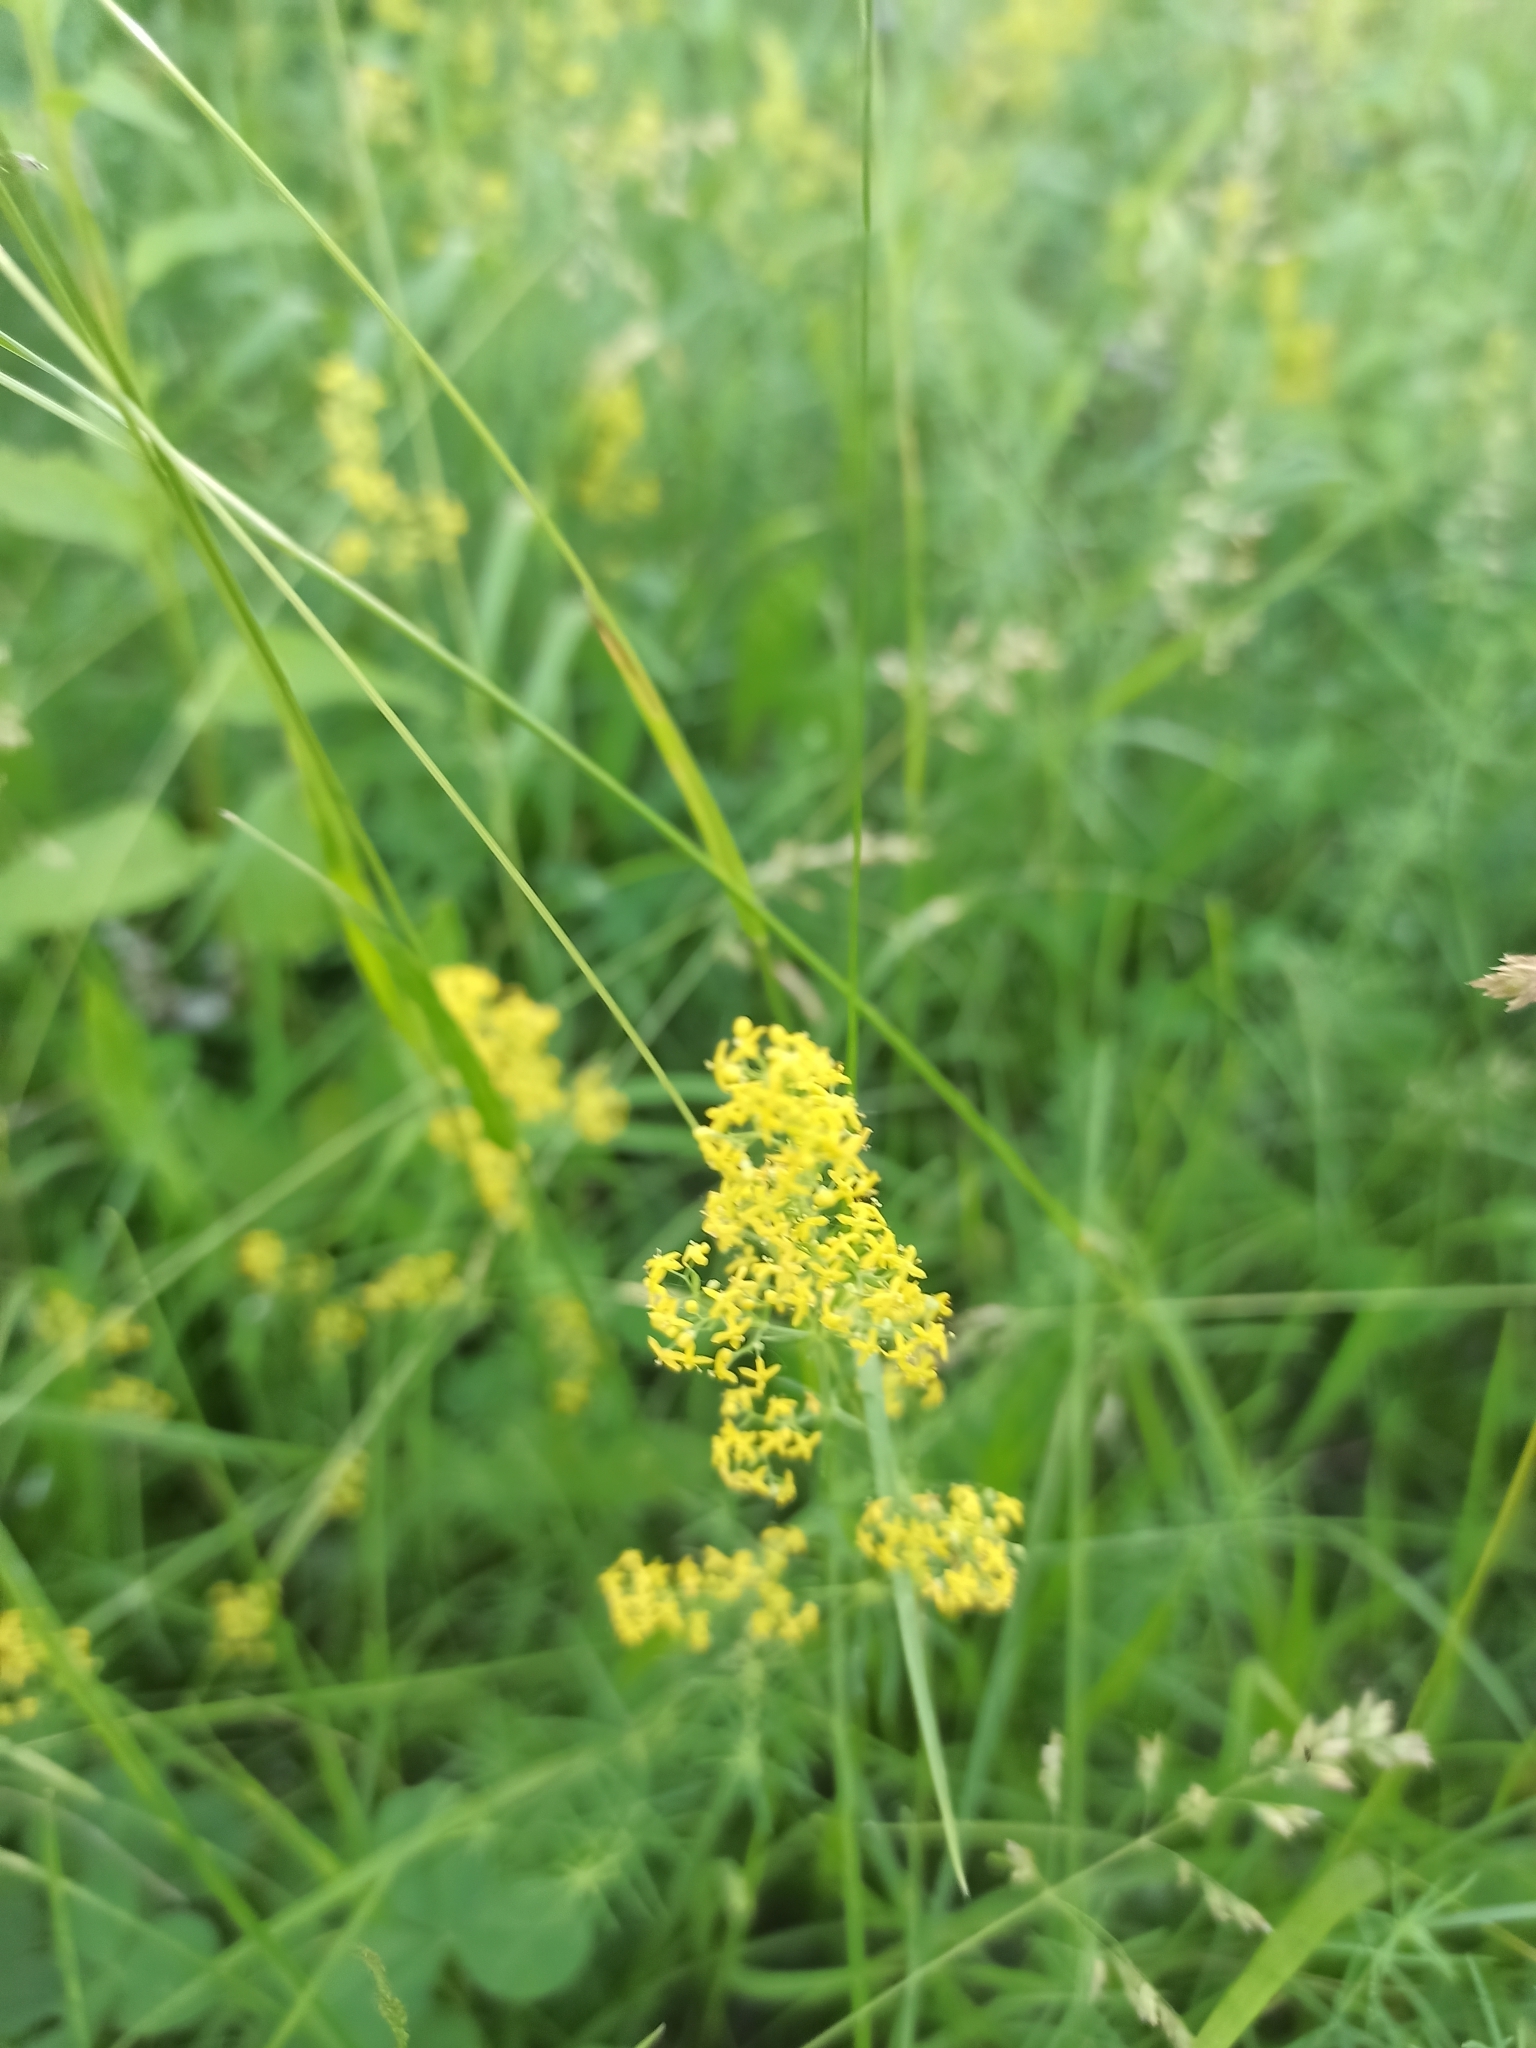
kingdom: Plantae
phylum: Tracheophyta
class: Magnoliopsida
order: Gentianales
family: Rubiaceae
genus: Galium
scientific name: Galium verum
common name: Lady's bedstraw
